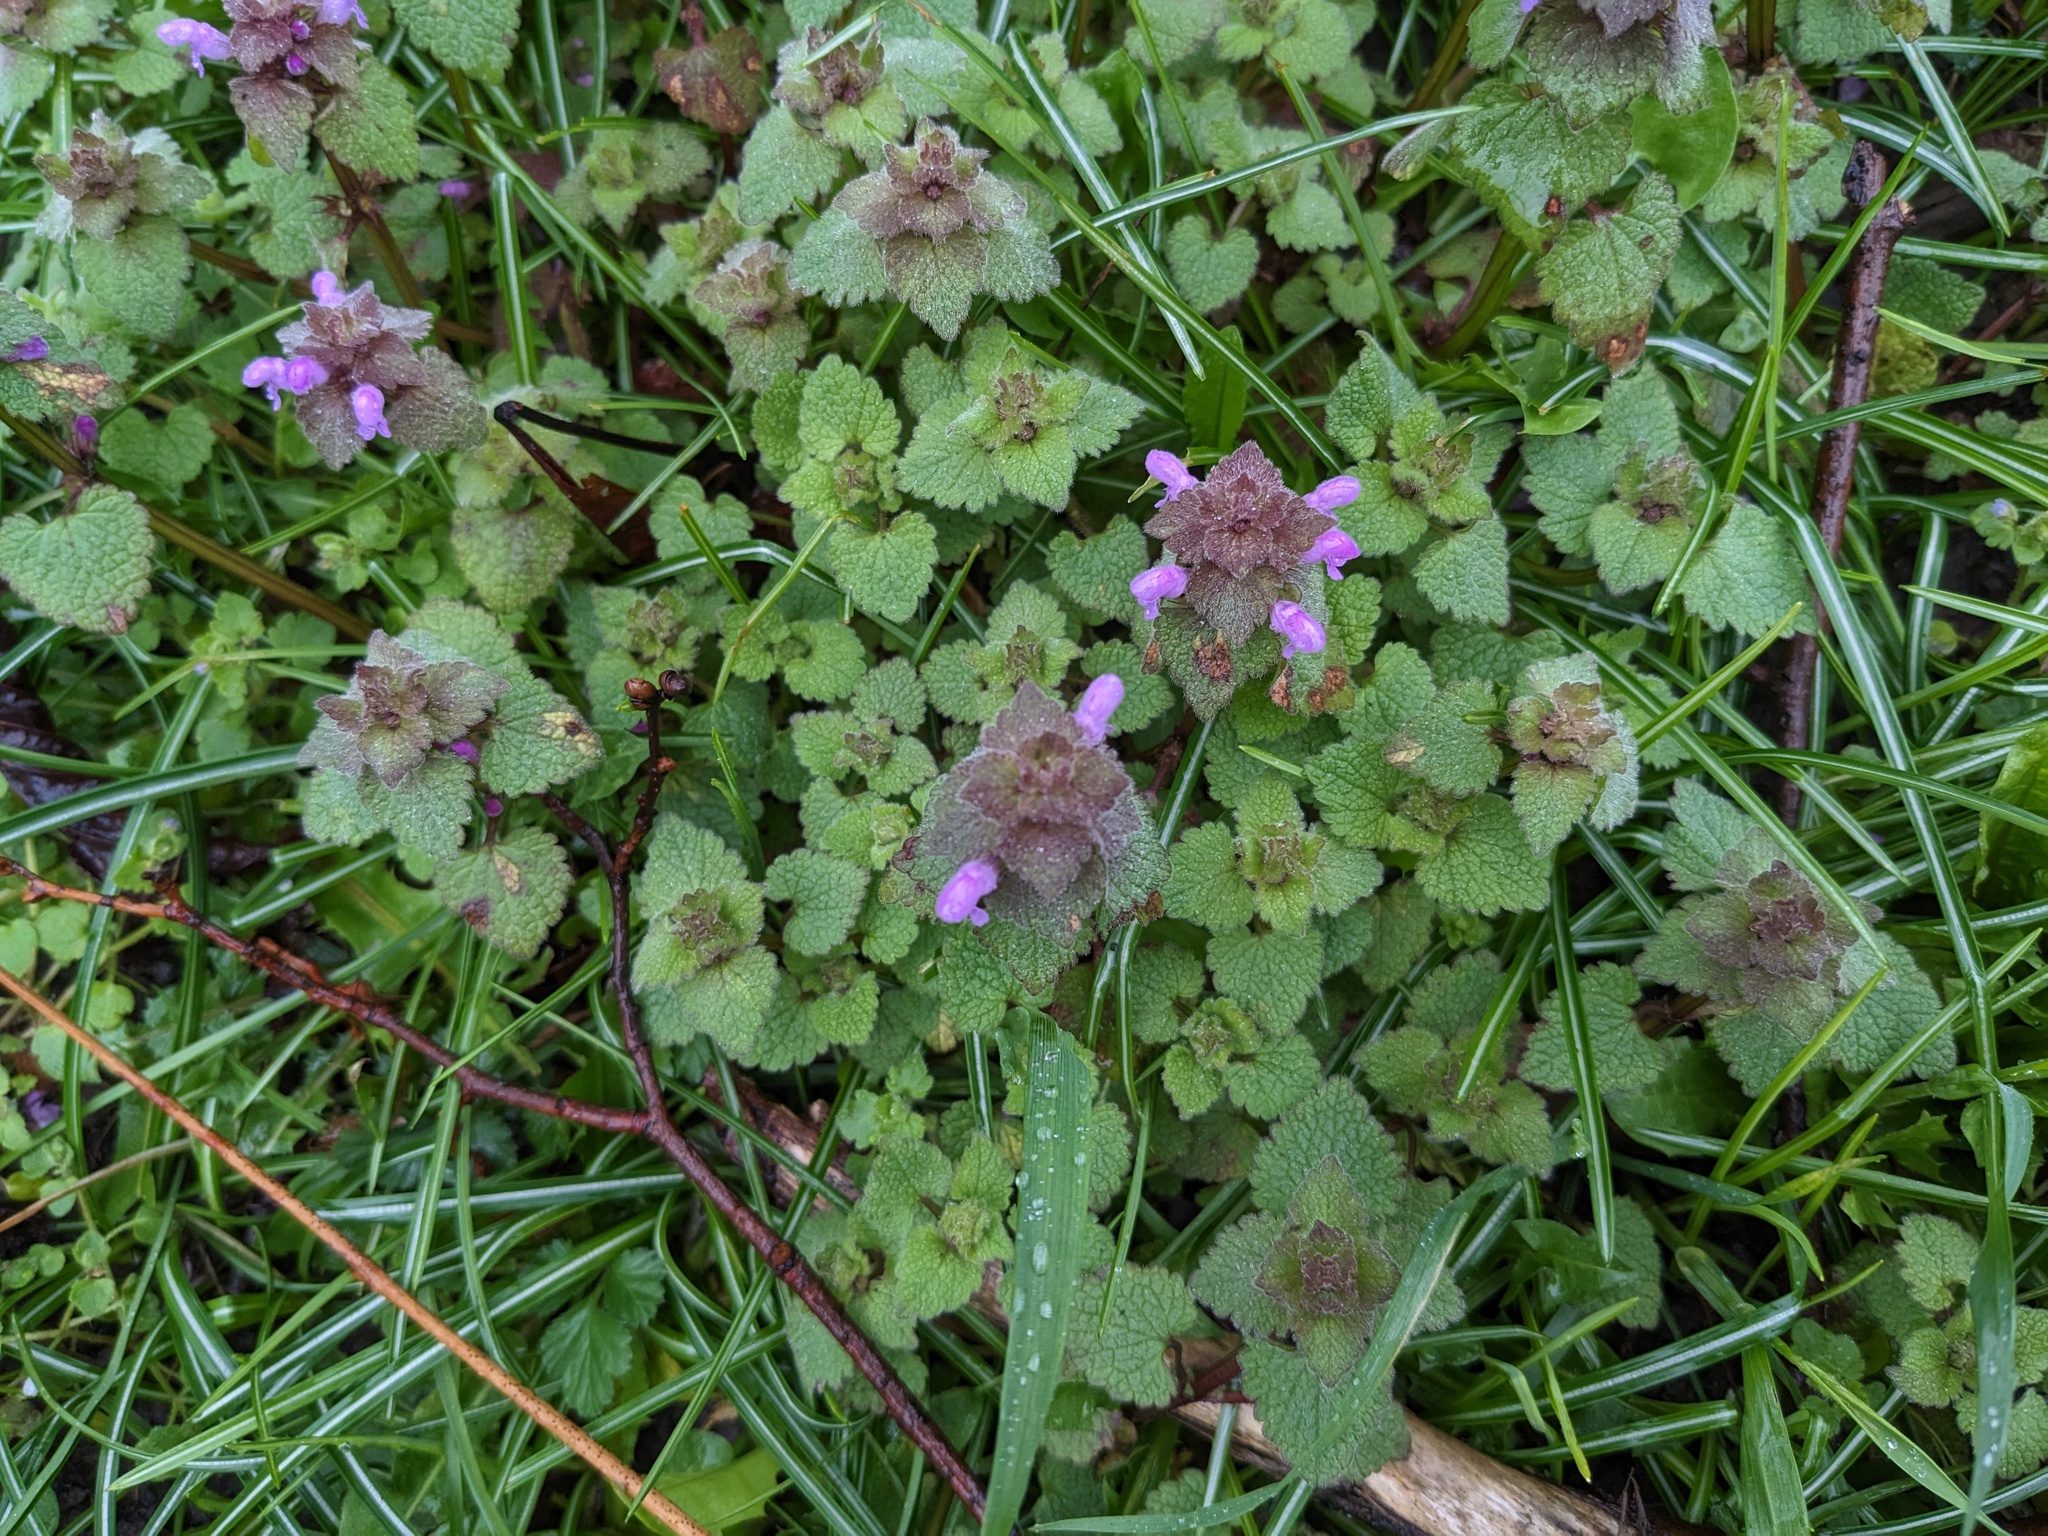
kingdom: Plantae
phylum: Tracheophyta
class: Magnoliopsida
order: Lamiales
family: Lamiaceae
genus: Lamium
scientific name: Lamium purpureum
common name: Red dead-nettle
